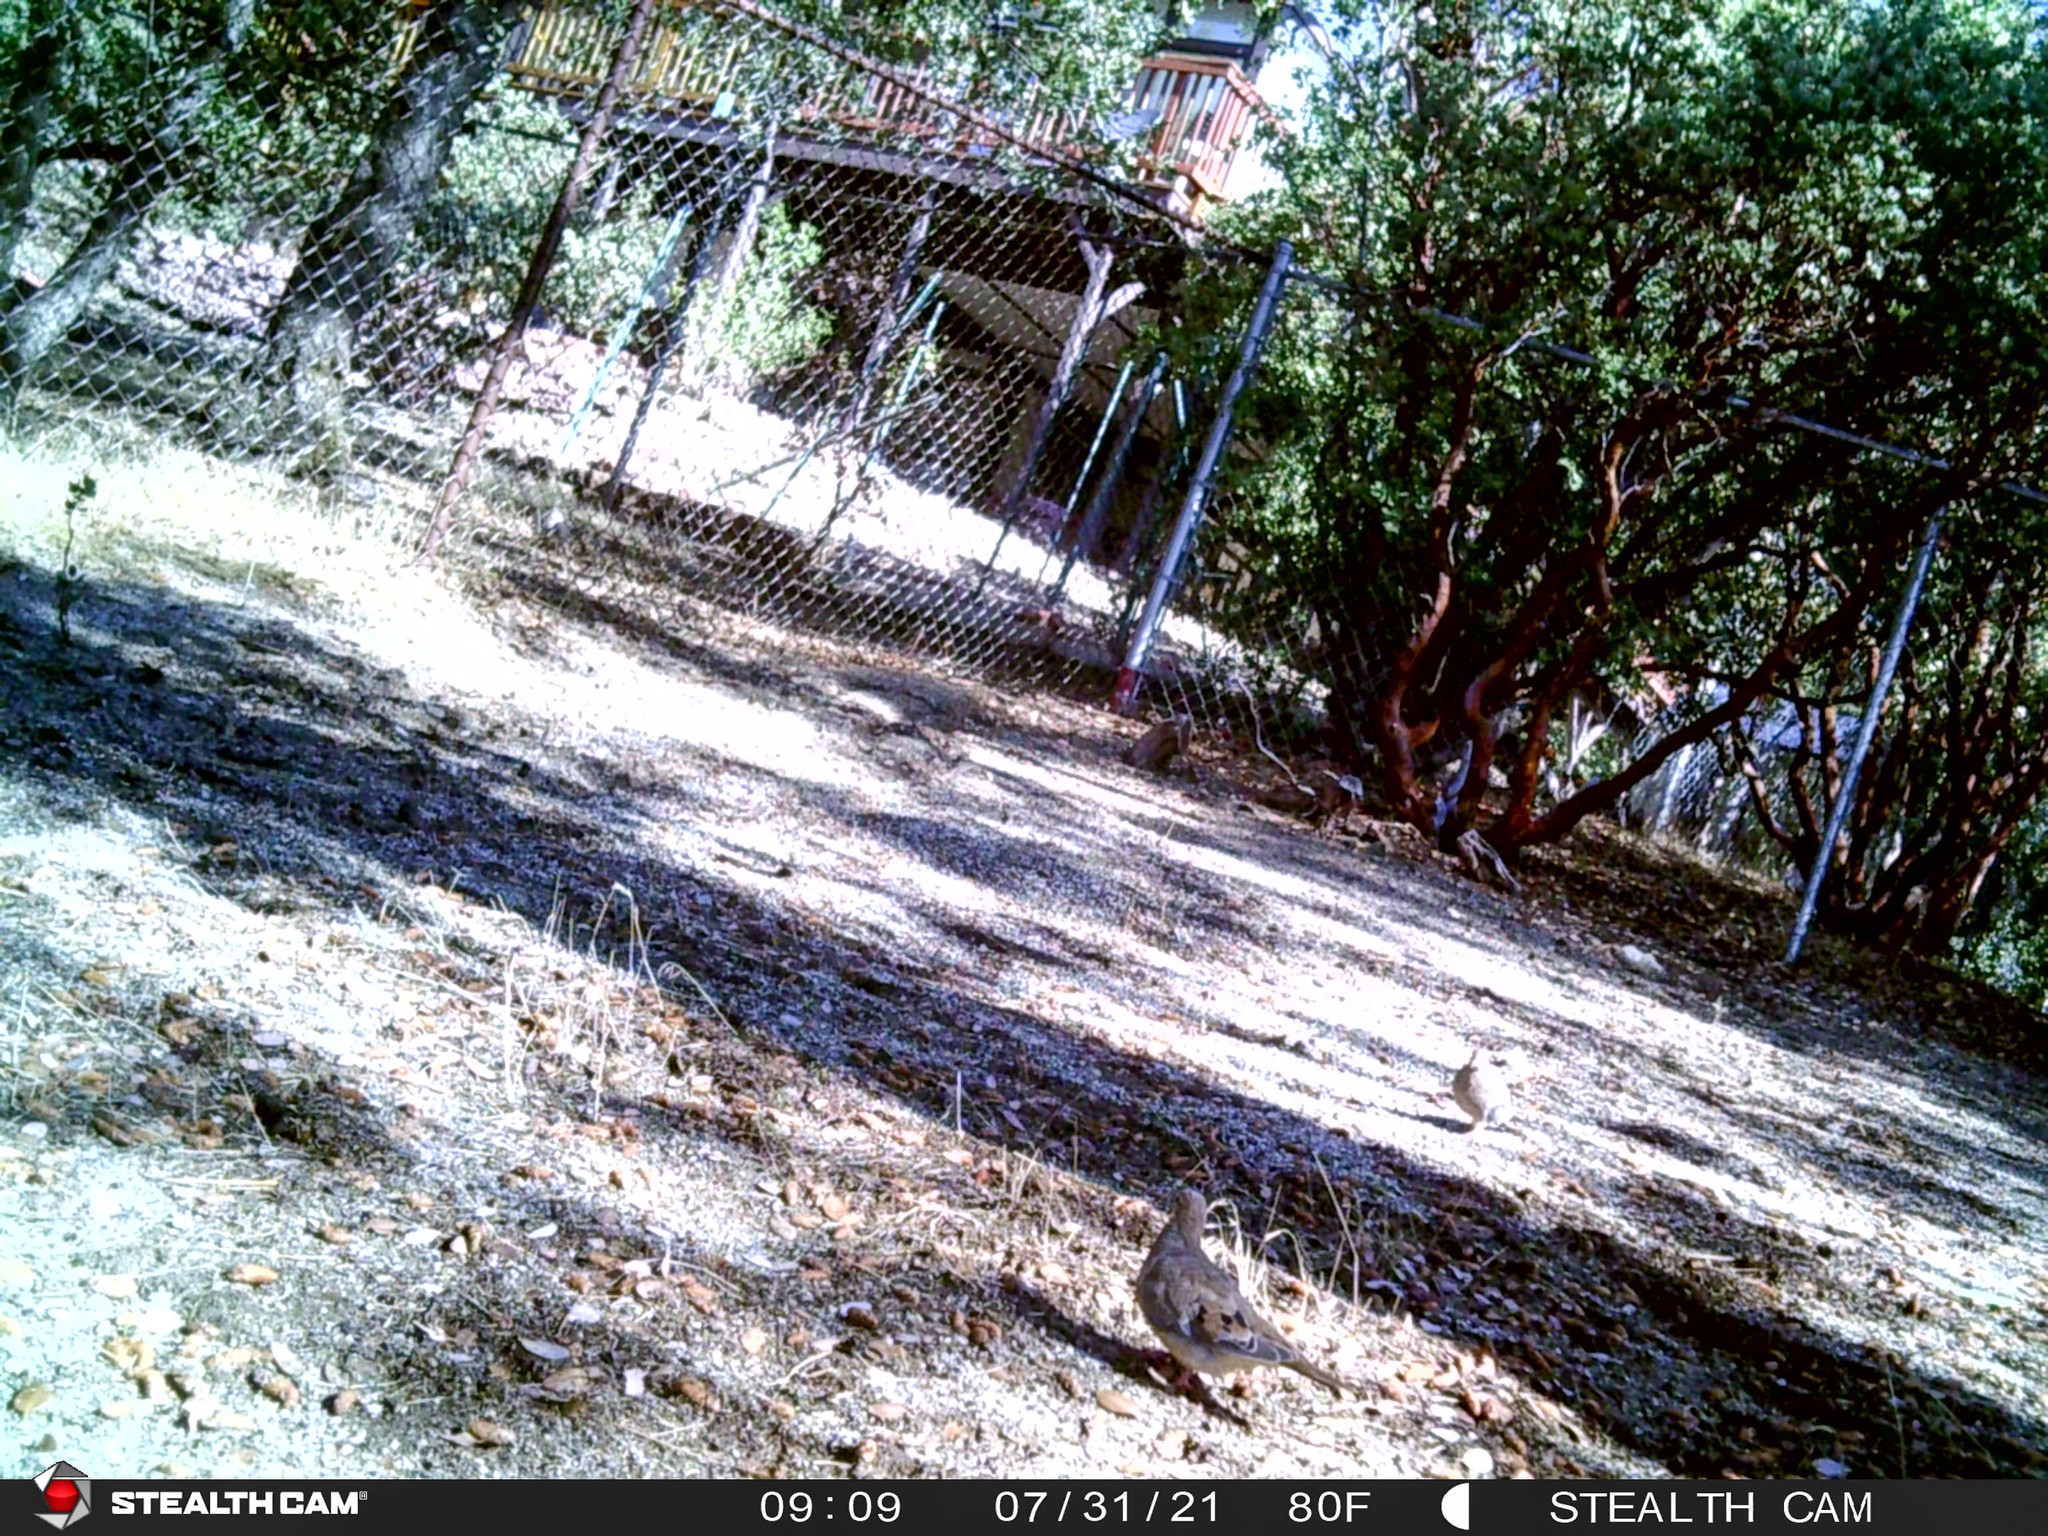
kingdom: Animalia
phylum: Chordata
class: Aves
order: Columbiformes
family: Columbidae
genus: Zenaida
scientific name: Zenaida macroura
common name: Mourning dove
